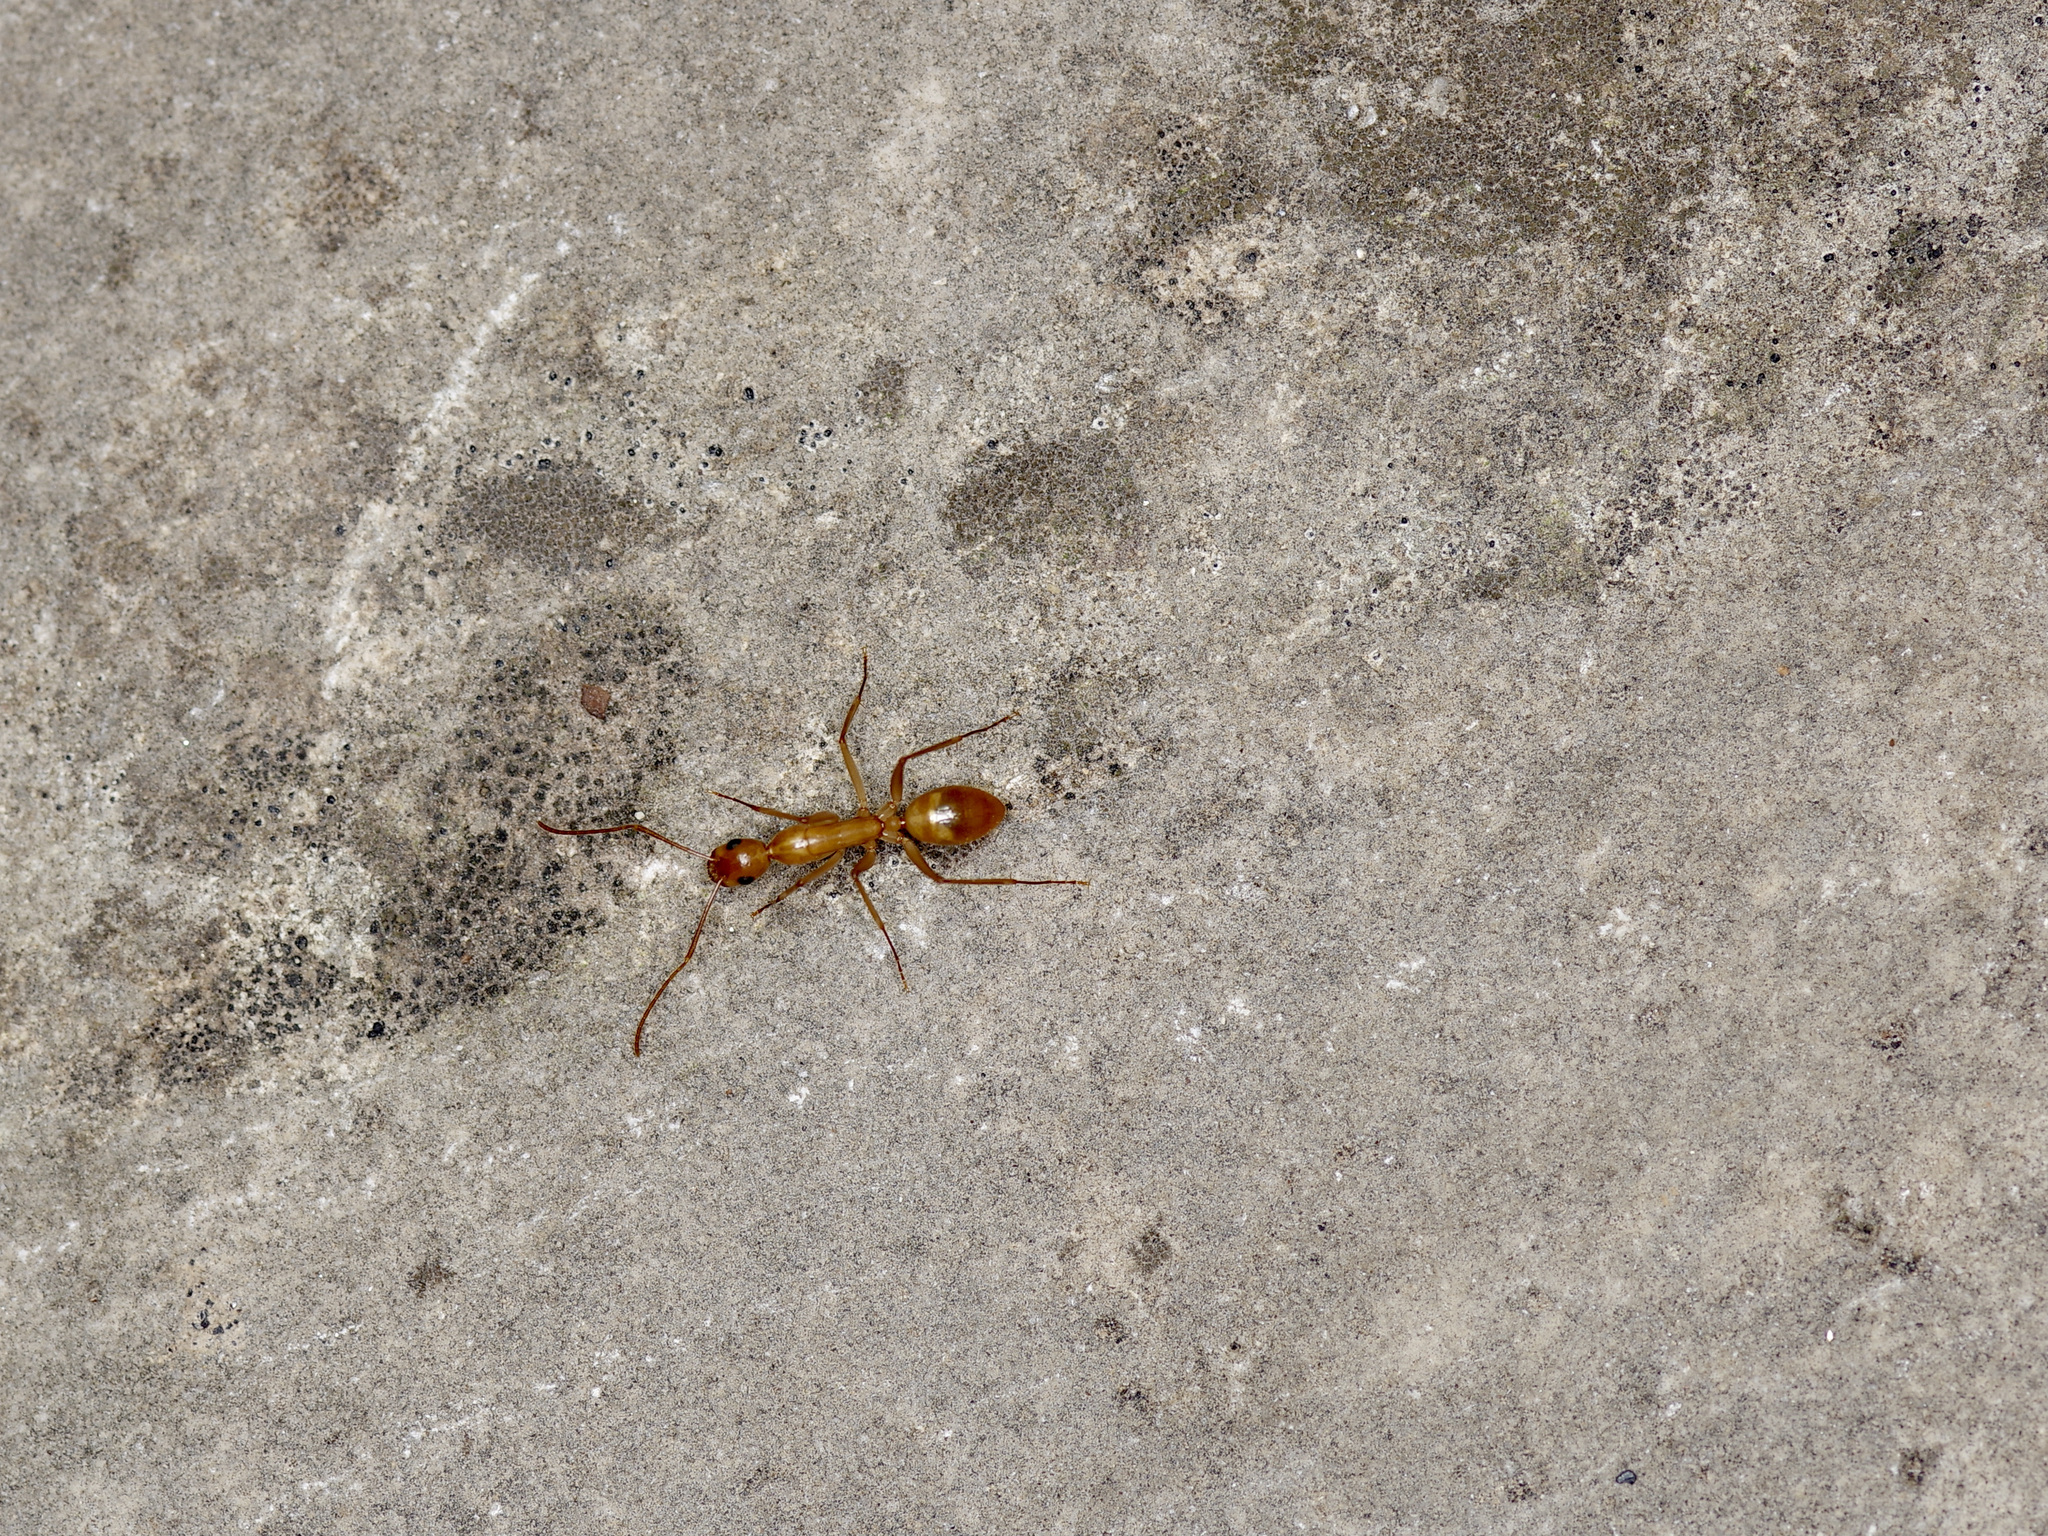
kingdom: Animalia
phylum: Arthropoda
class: Insecta
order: Hymenoptera
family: Formicidae
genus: Camponotus
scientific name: Camponotus festinatus
